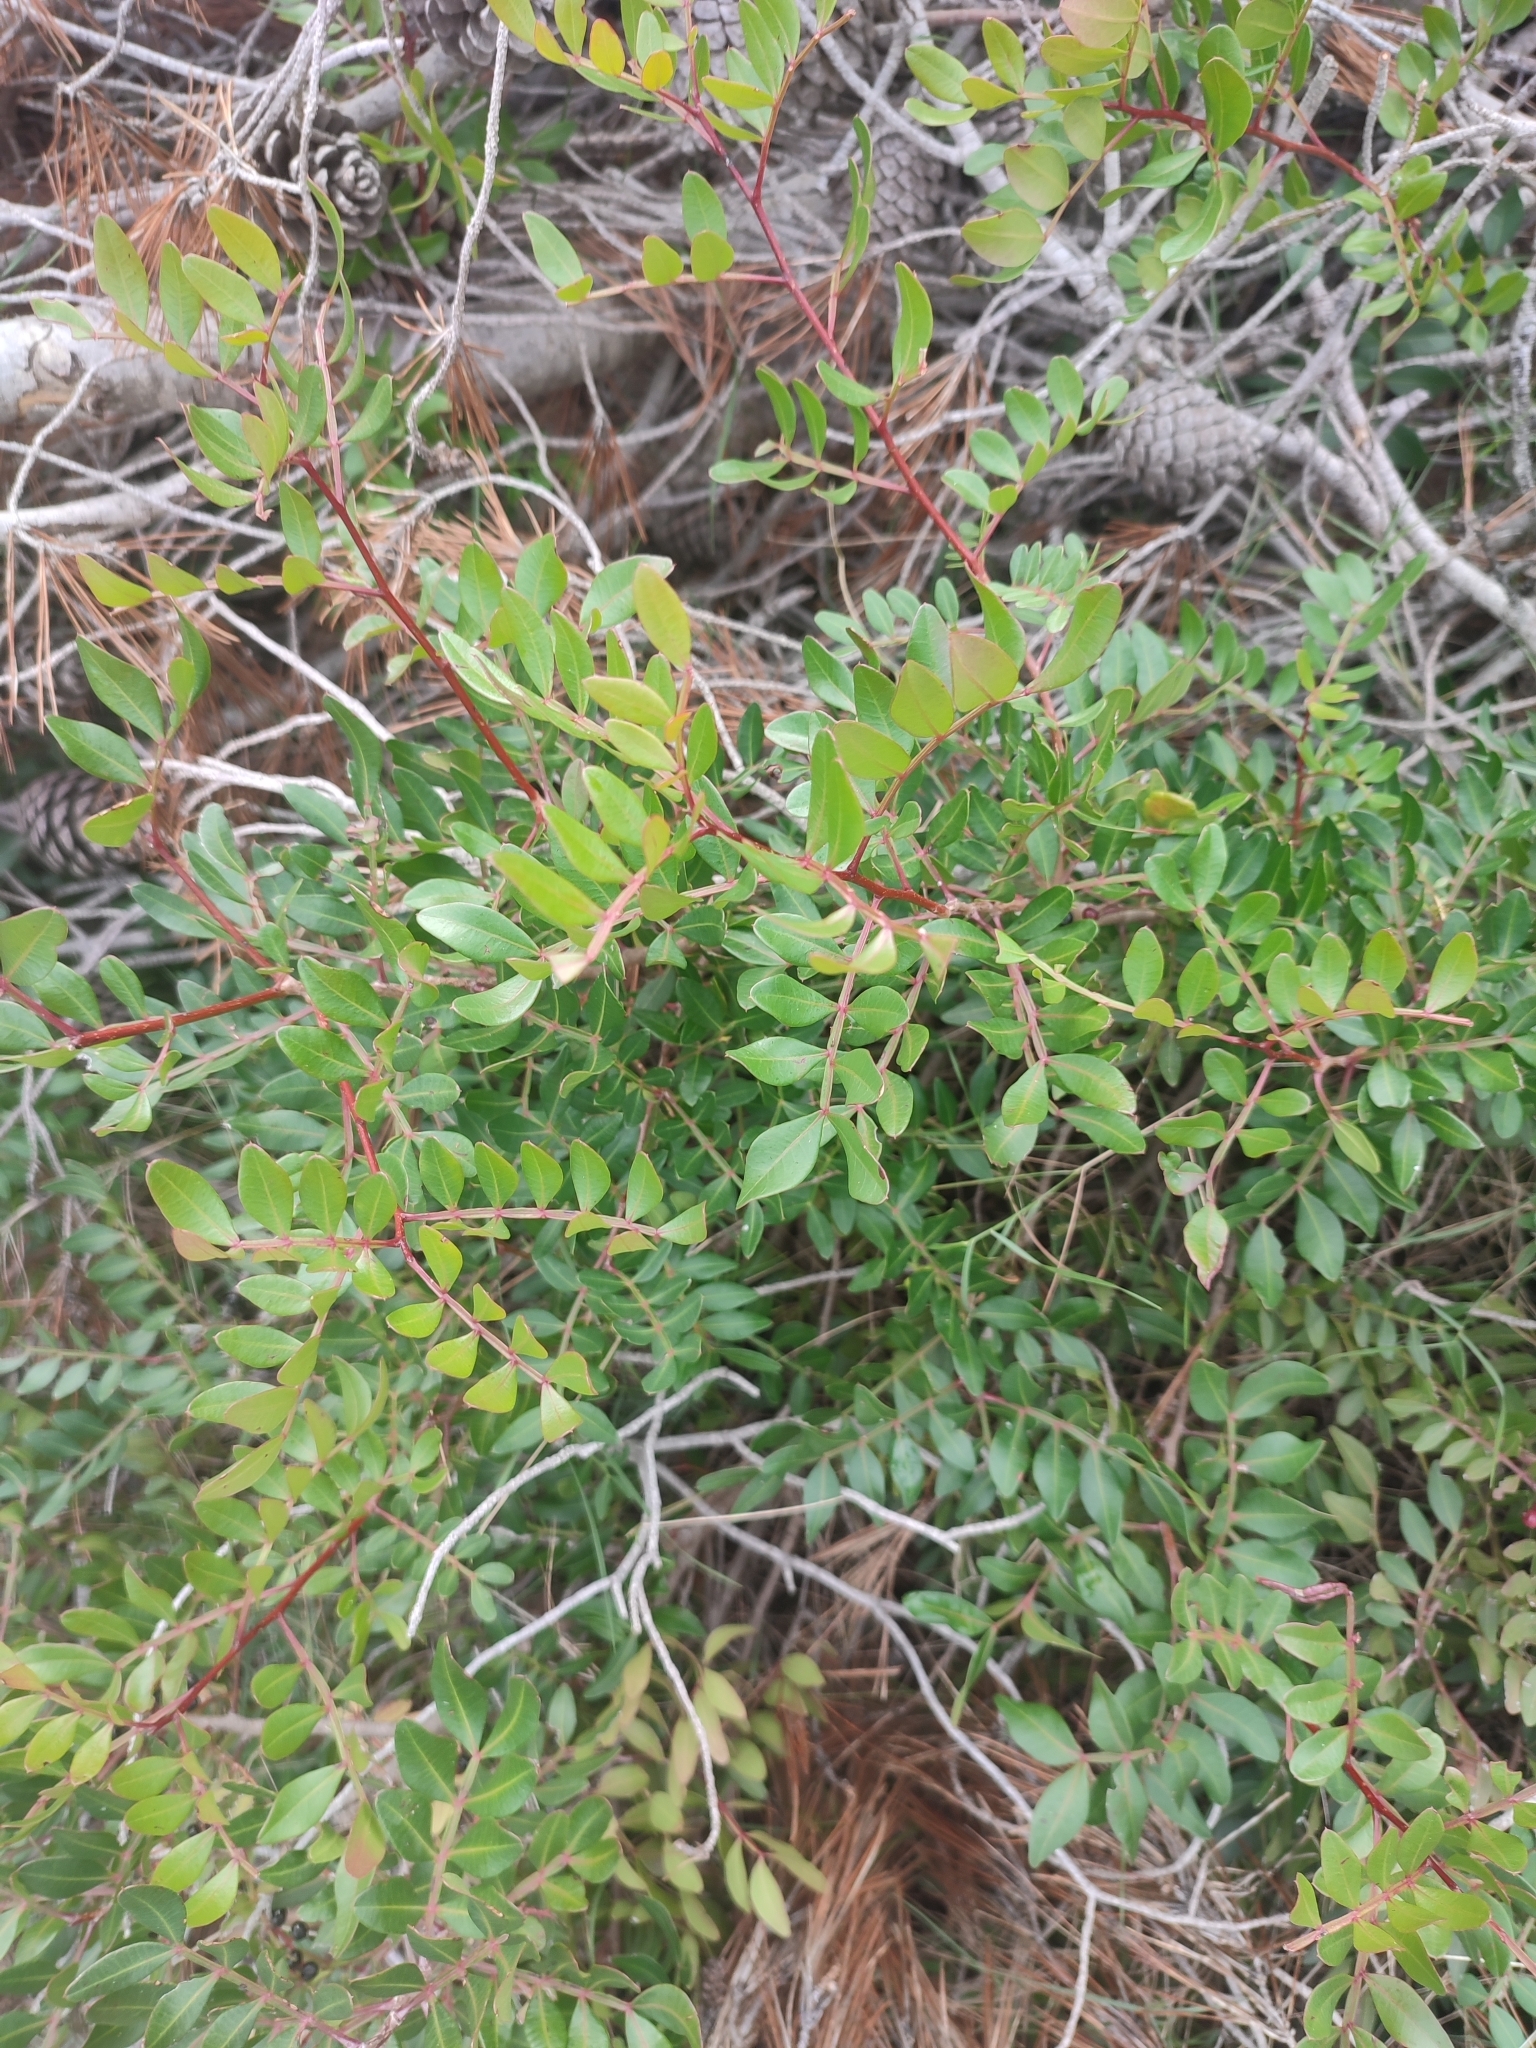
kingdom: Plantae
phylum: Tracheophyta
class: Magnoliopsida
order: Sapindales
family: Anacardiaceae
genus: Pistacia
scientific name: Pistacia lentiscus
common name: Lentisk
